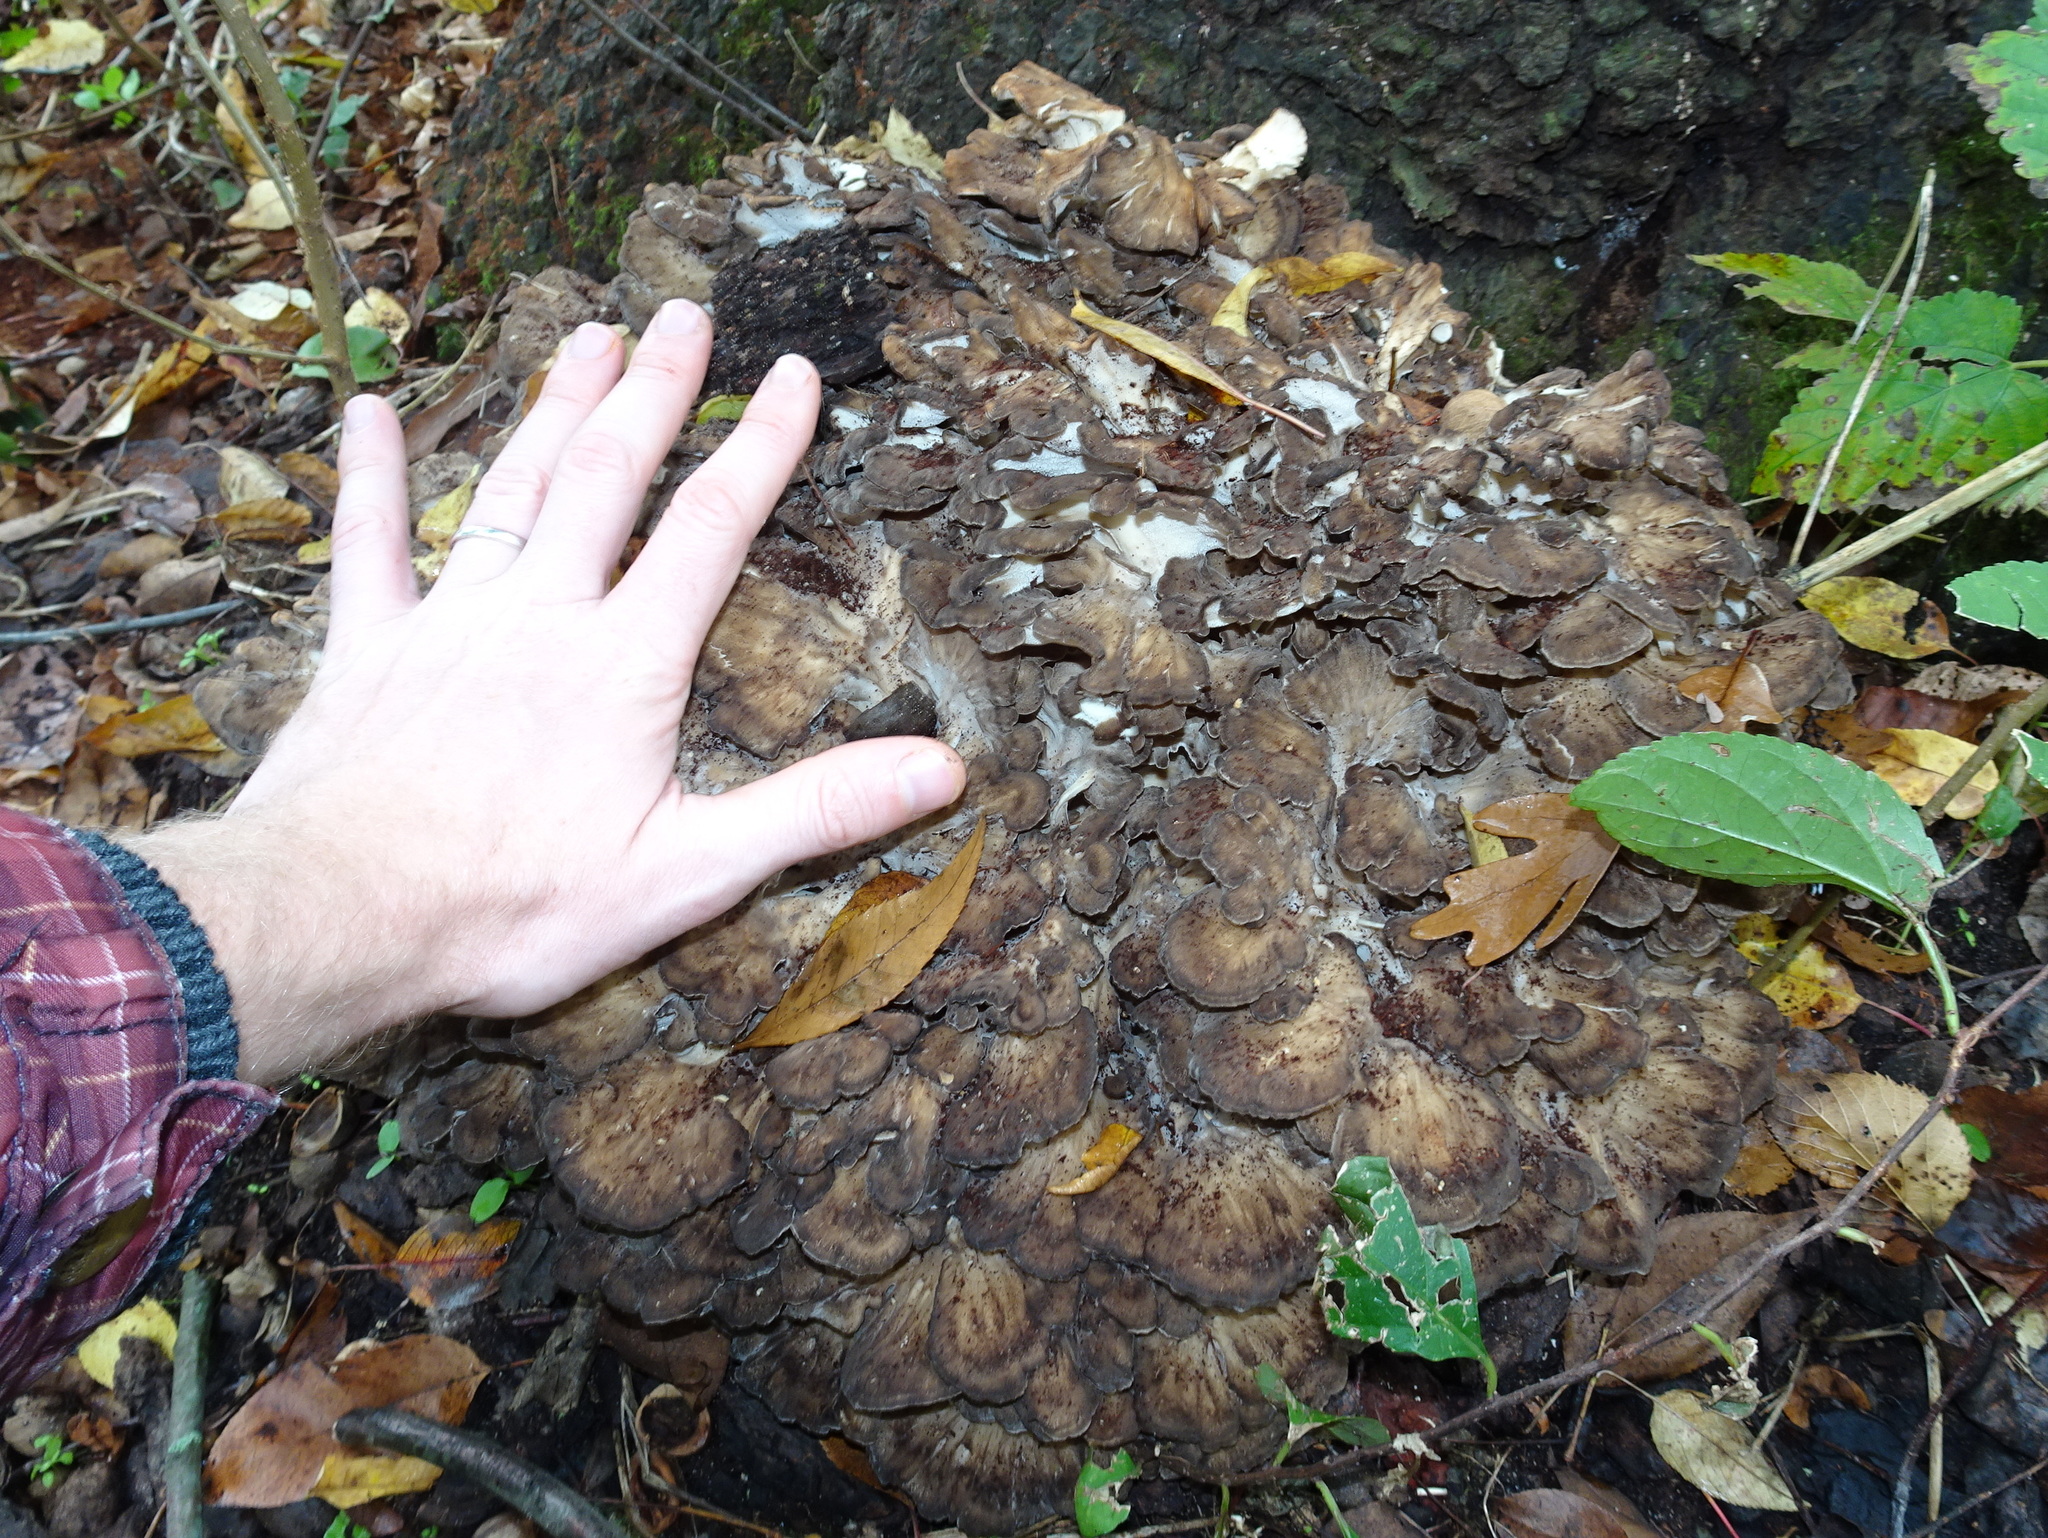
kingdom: Fungi
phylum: Basidiomycota
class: Agaricomycetes
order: Polyporales
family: Grifolaceae
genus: Grifola
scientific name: Grifola frondosa
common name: Hen of the woods
